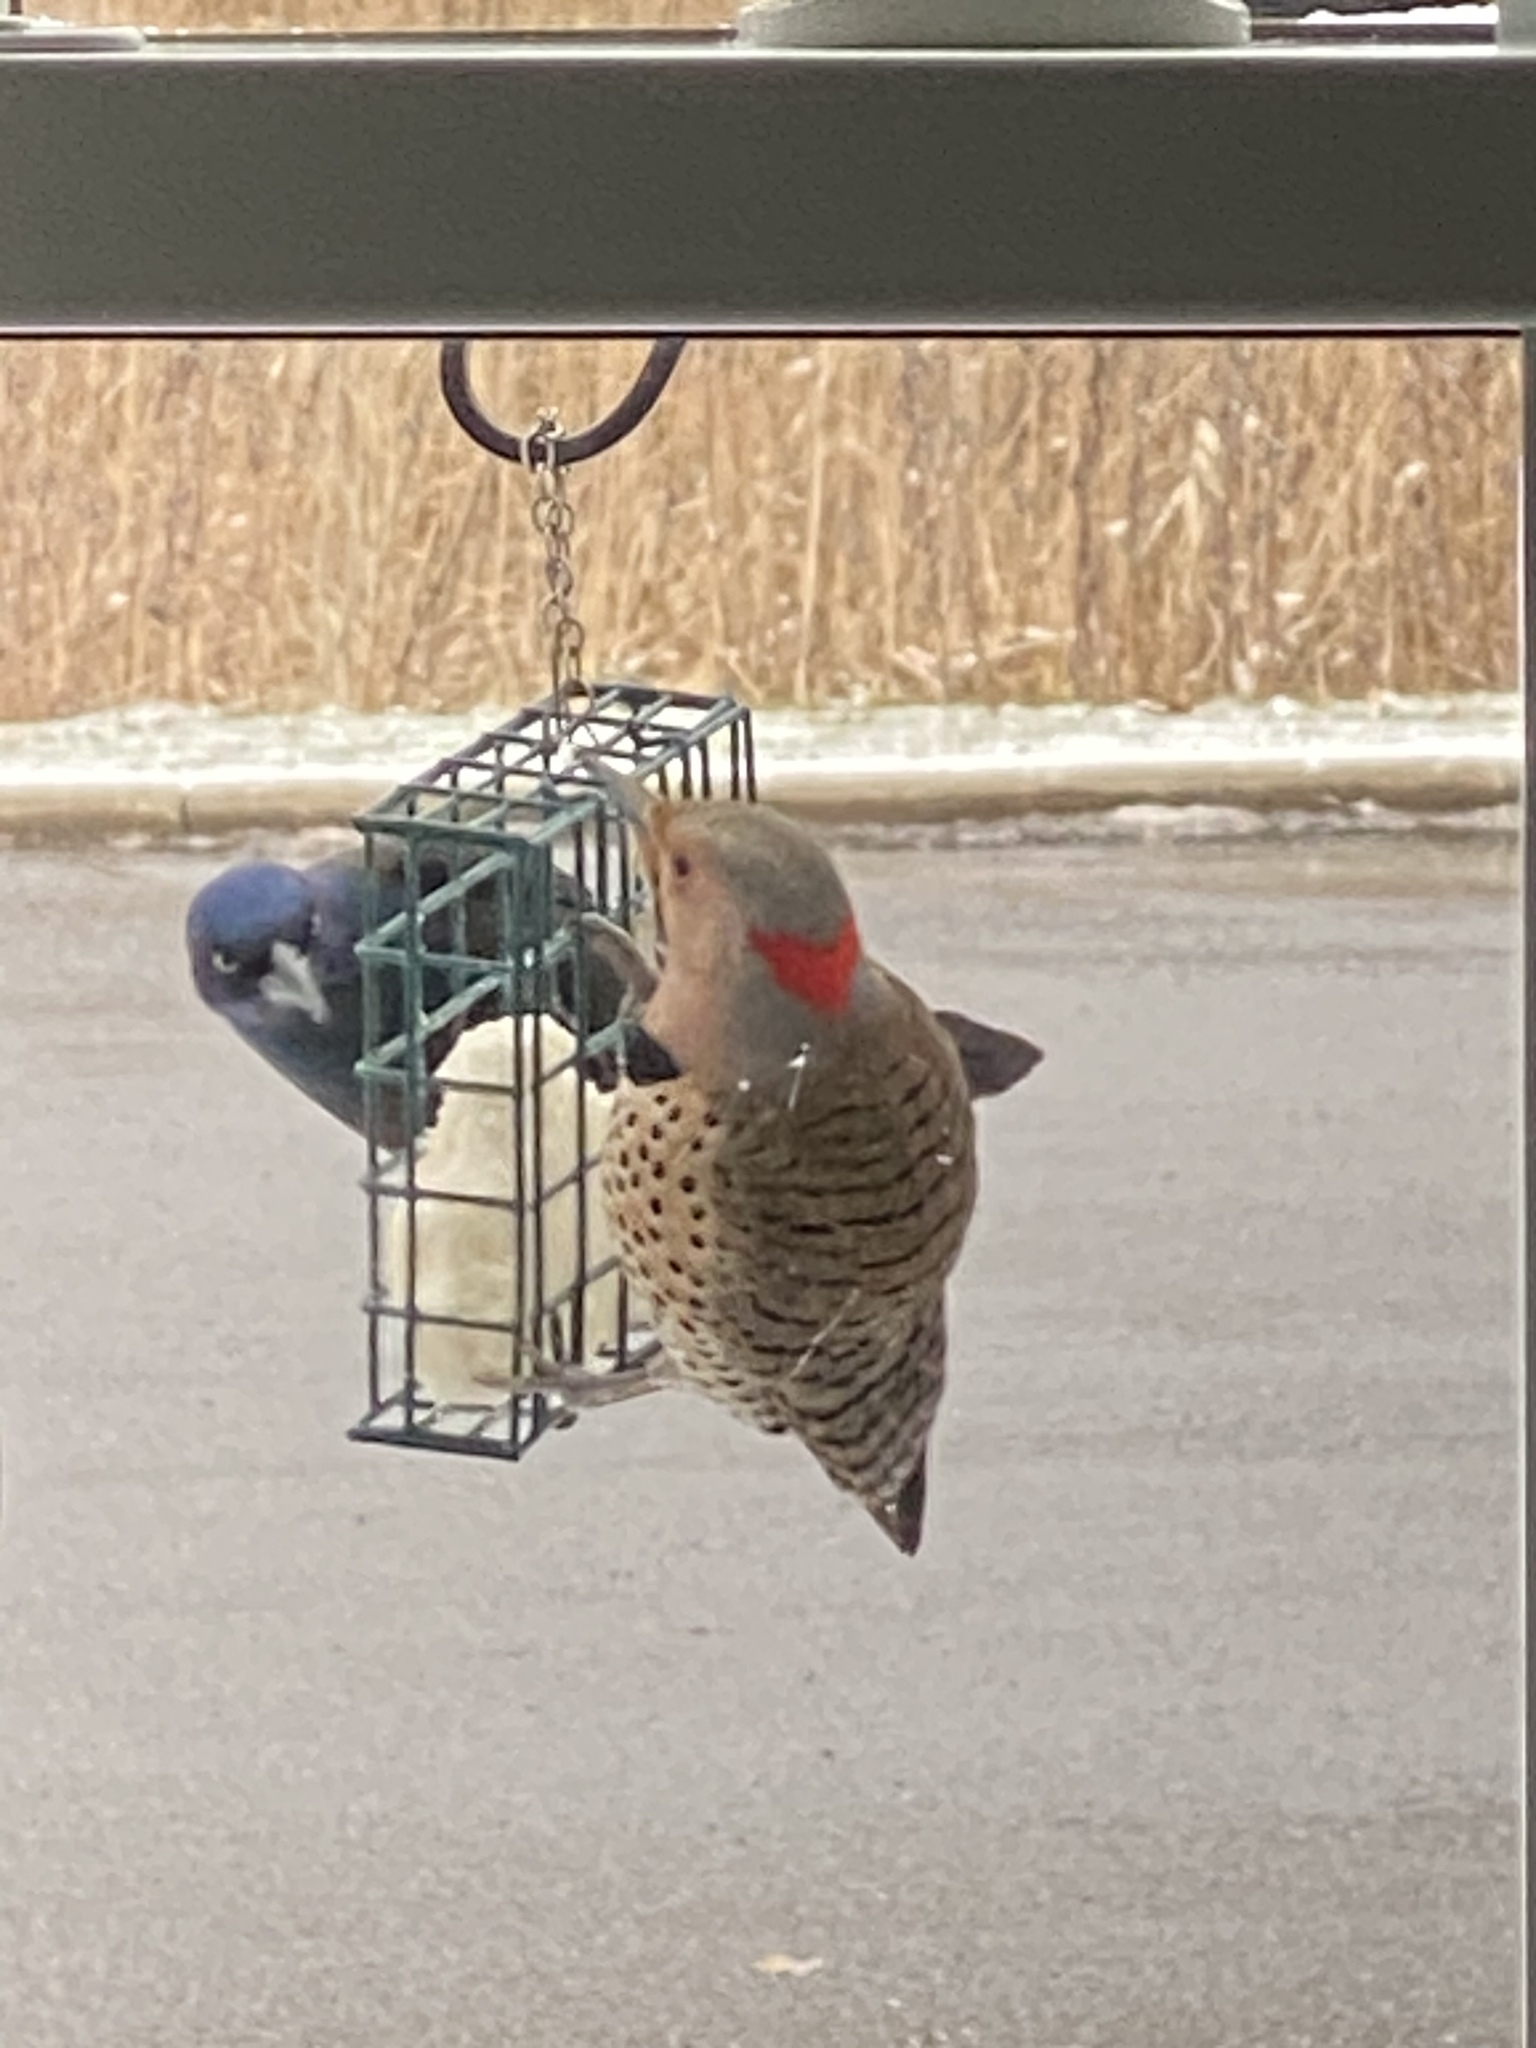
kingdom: Animalia
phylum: Chordata
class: Aves
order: Piciformes
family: Picidae
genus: Colaptes
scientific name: Colaptes auratus
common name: Northern flicker
